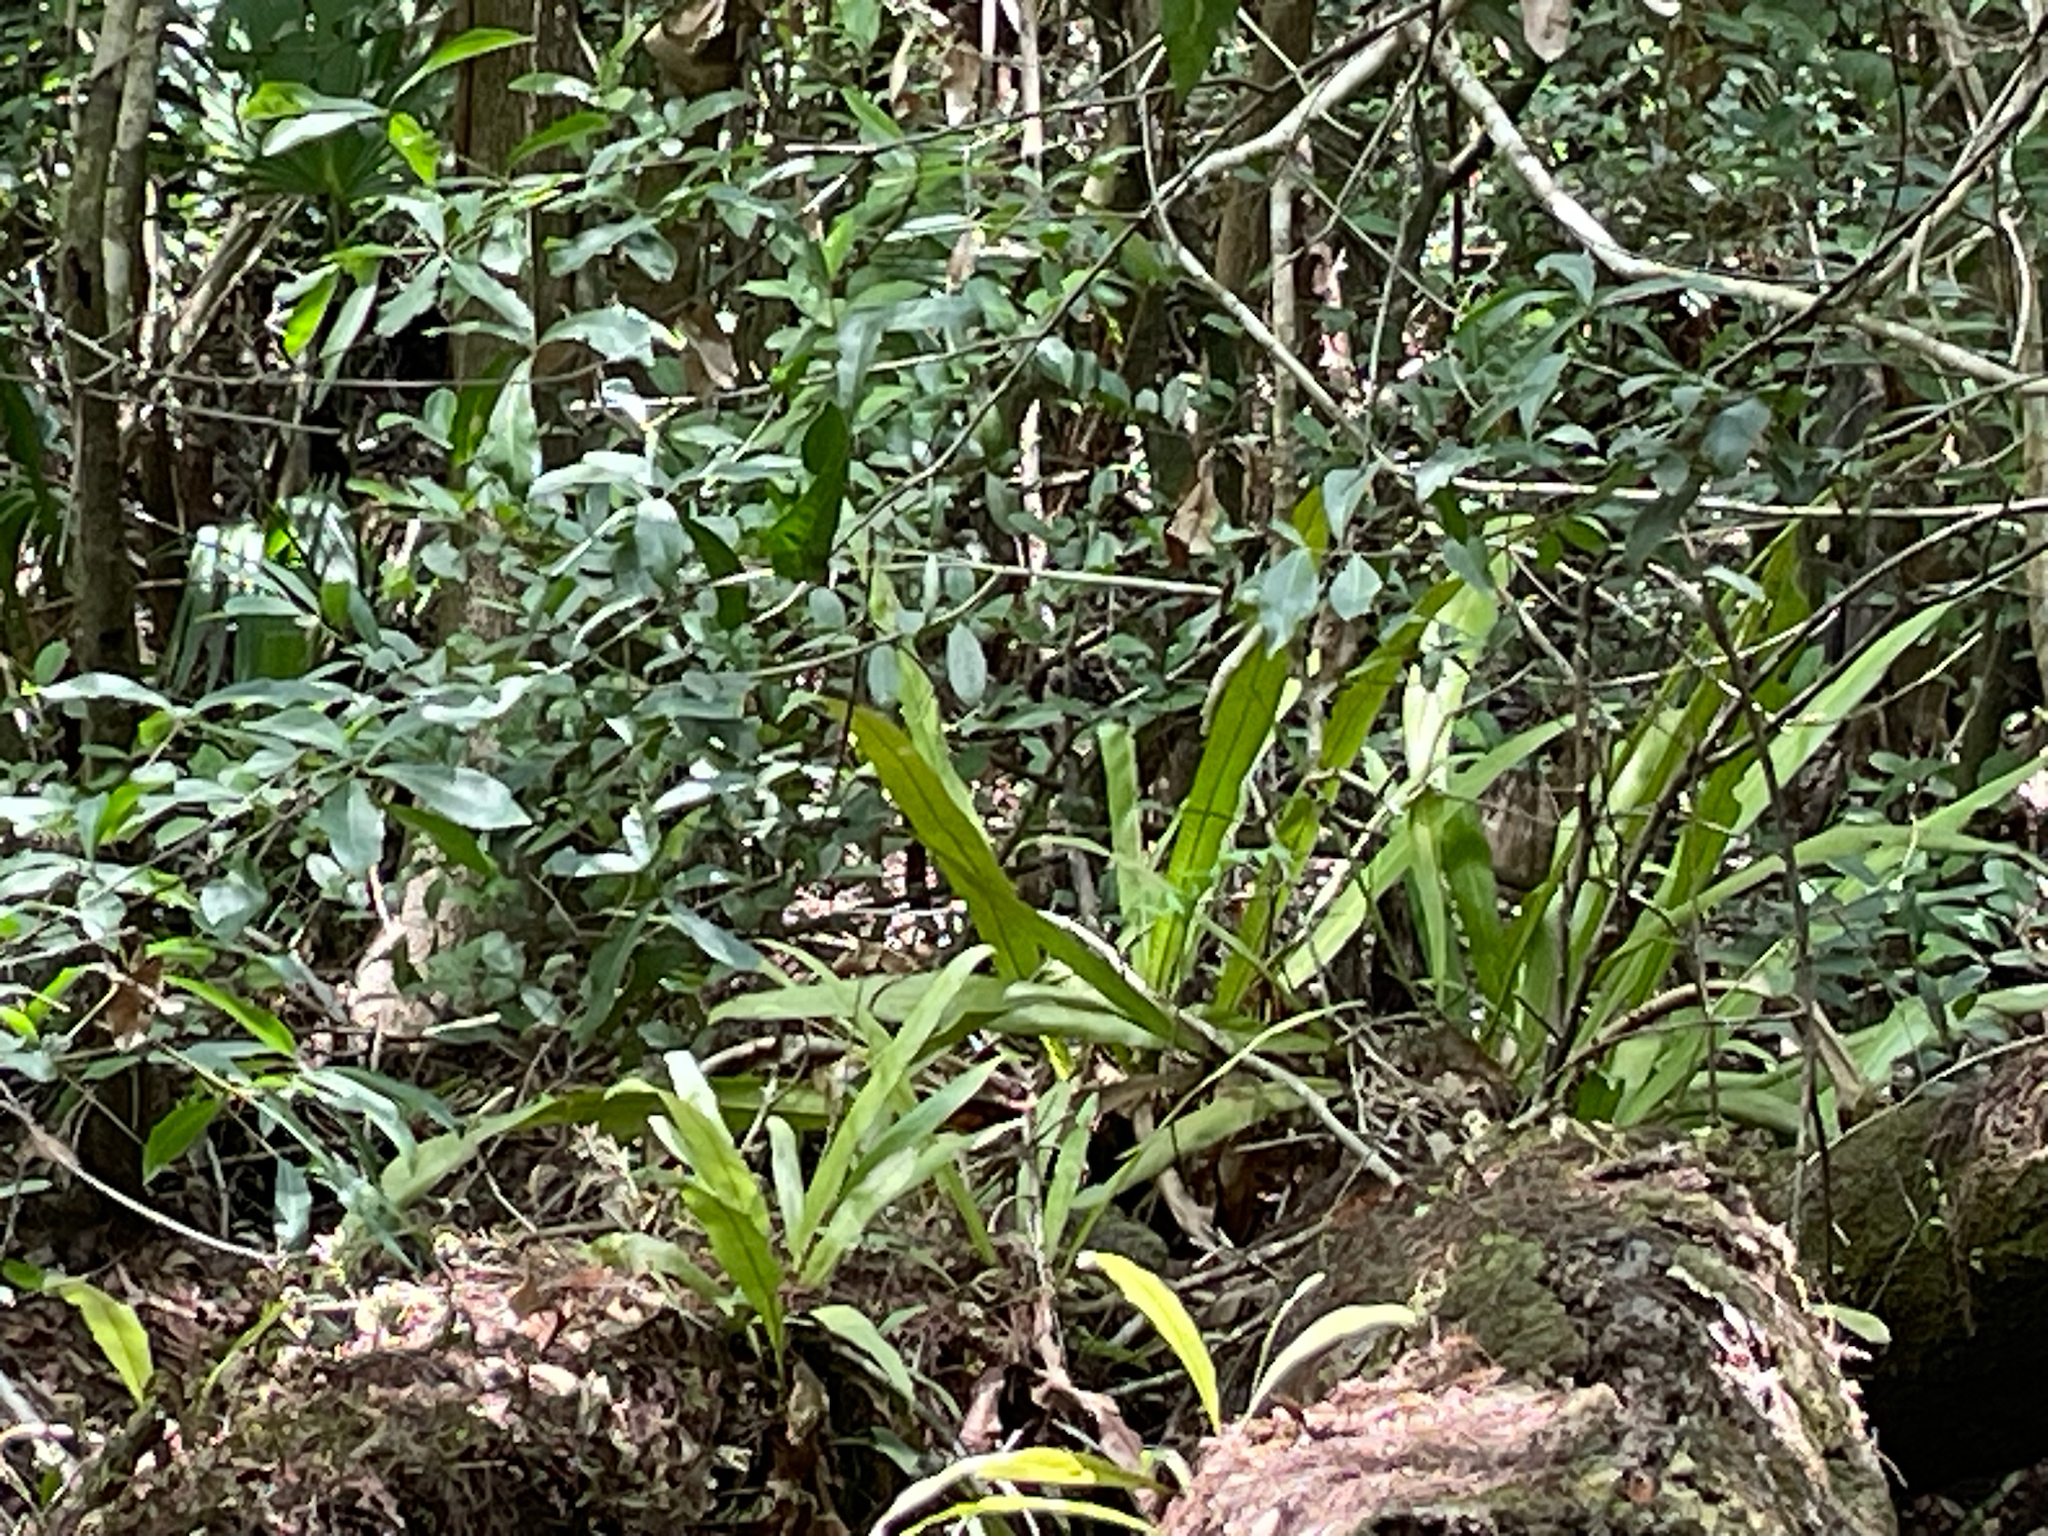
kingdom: Plantae
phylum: Tracheophyta
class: Polypodiopsida
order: Polypodiales
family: Polypodiaceae
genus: Campyloneurum
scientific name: Campyloneurum phyllitidis
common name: Cow-tongue fern
